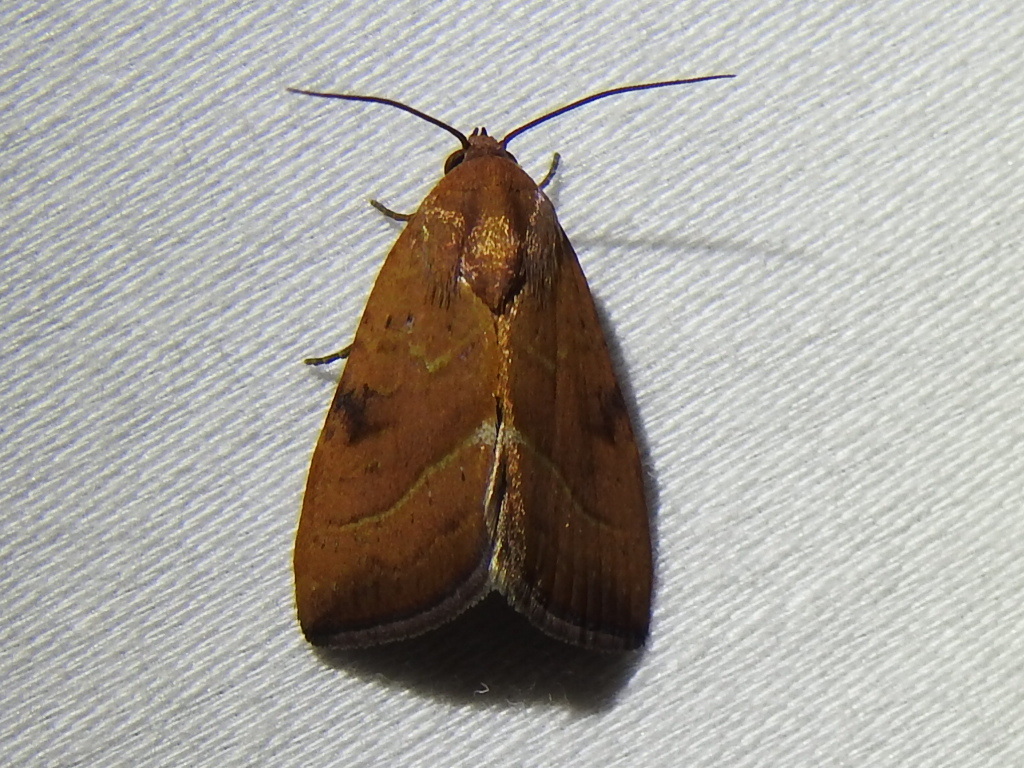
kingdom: Animalia
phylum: Arthropoda
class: Insecta
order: Lepidoptera
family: Noctuidae
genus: Galgula
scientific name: Galgula partita
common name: Wedgeling
